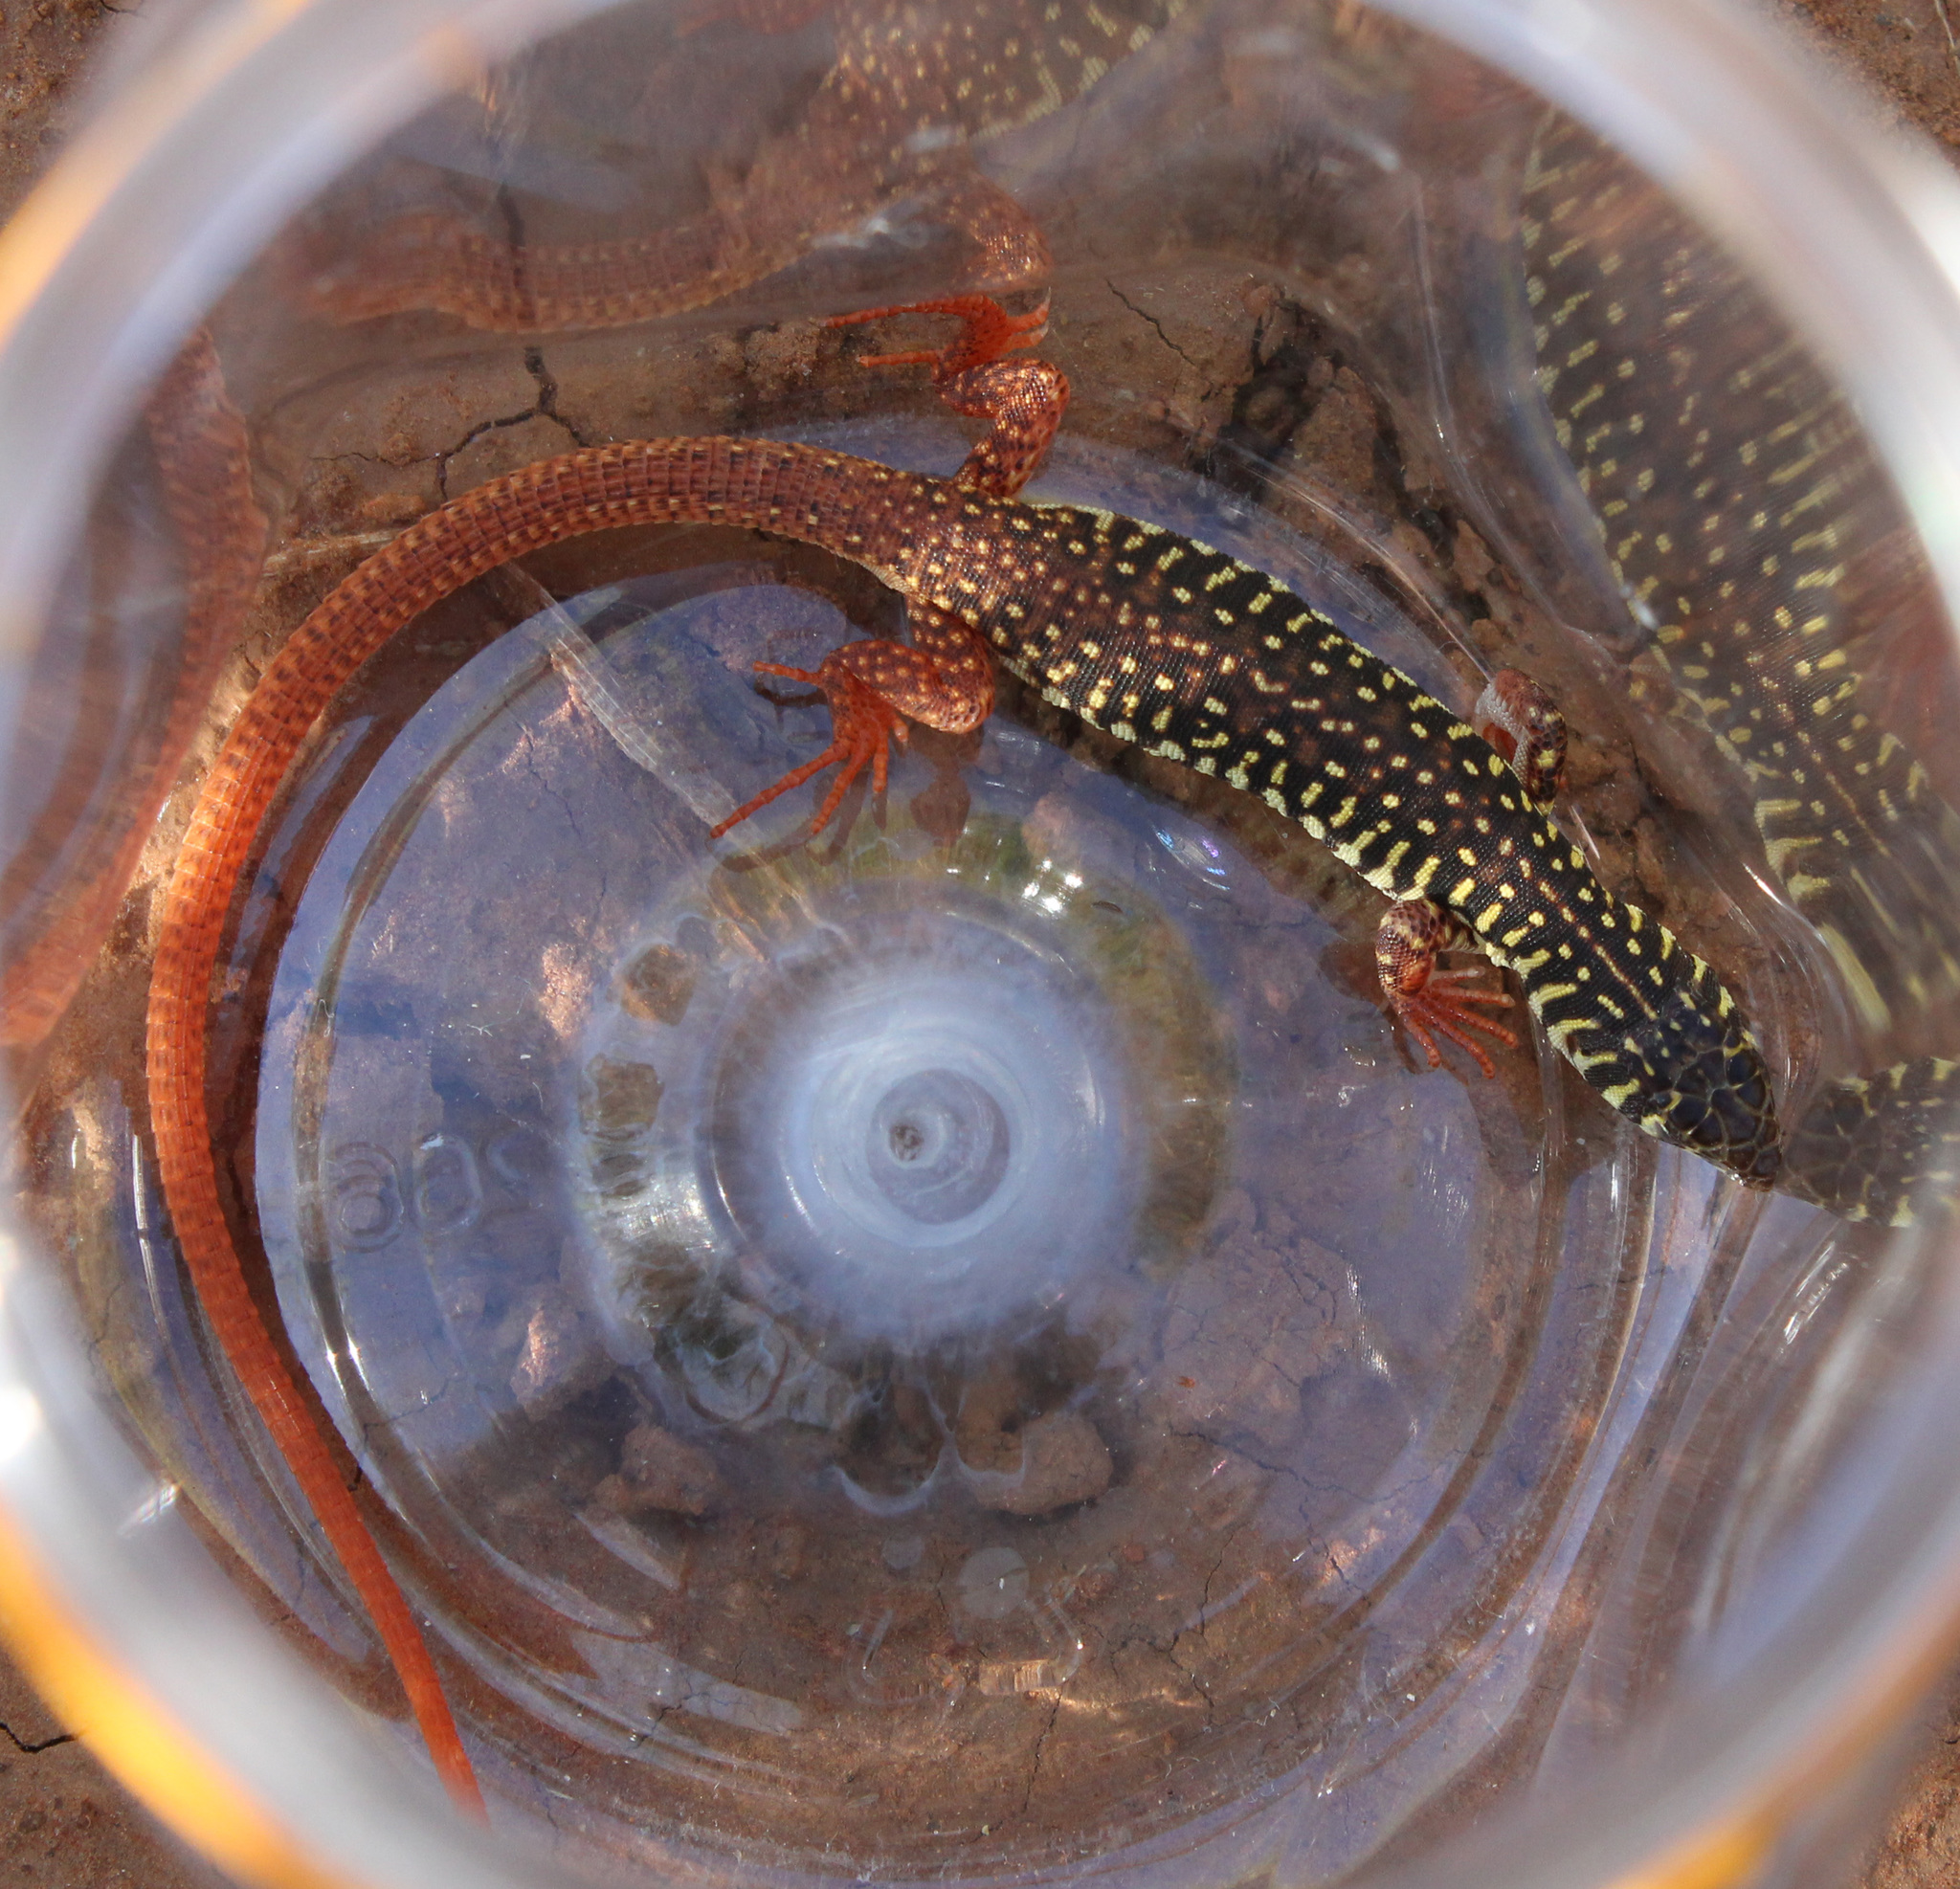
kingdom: Animalia
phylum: Chordata
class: Squamata
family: Lacertidae
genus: Nucras
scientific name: Nucras intertexta
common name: Spotted sandveld lizard
